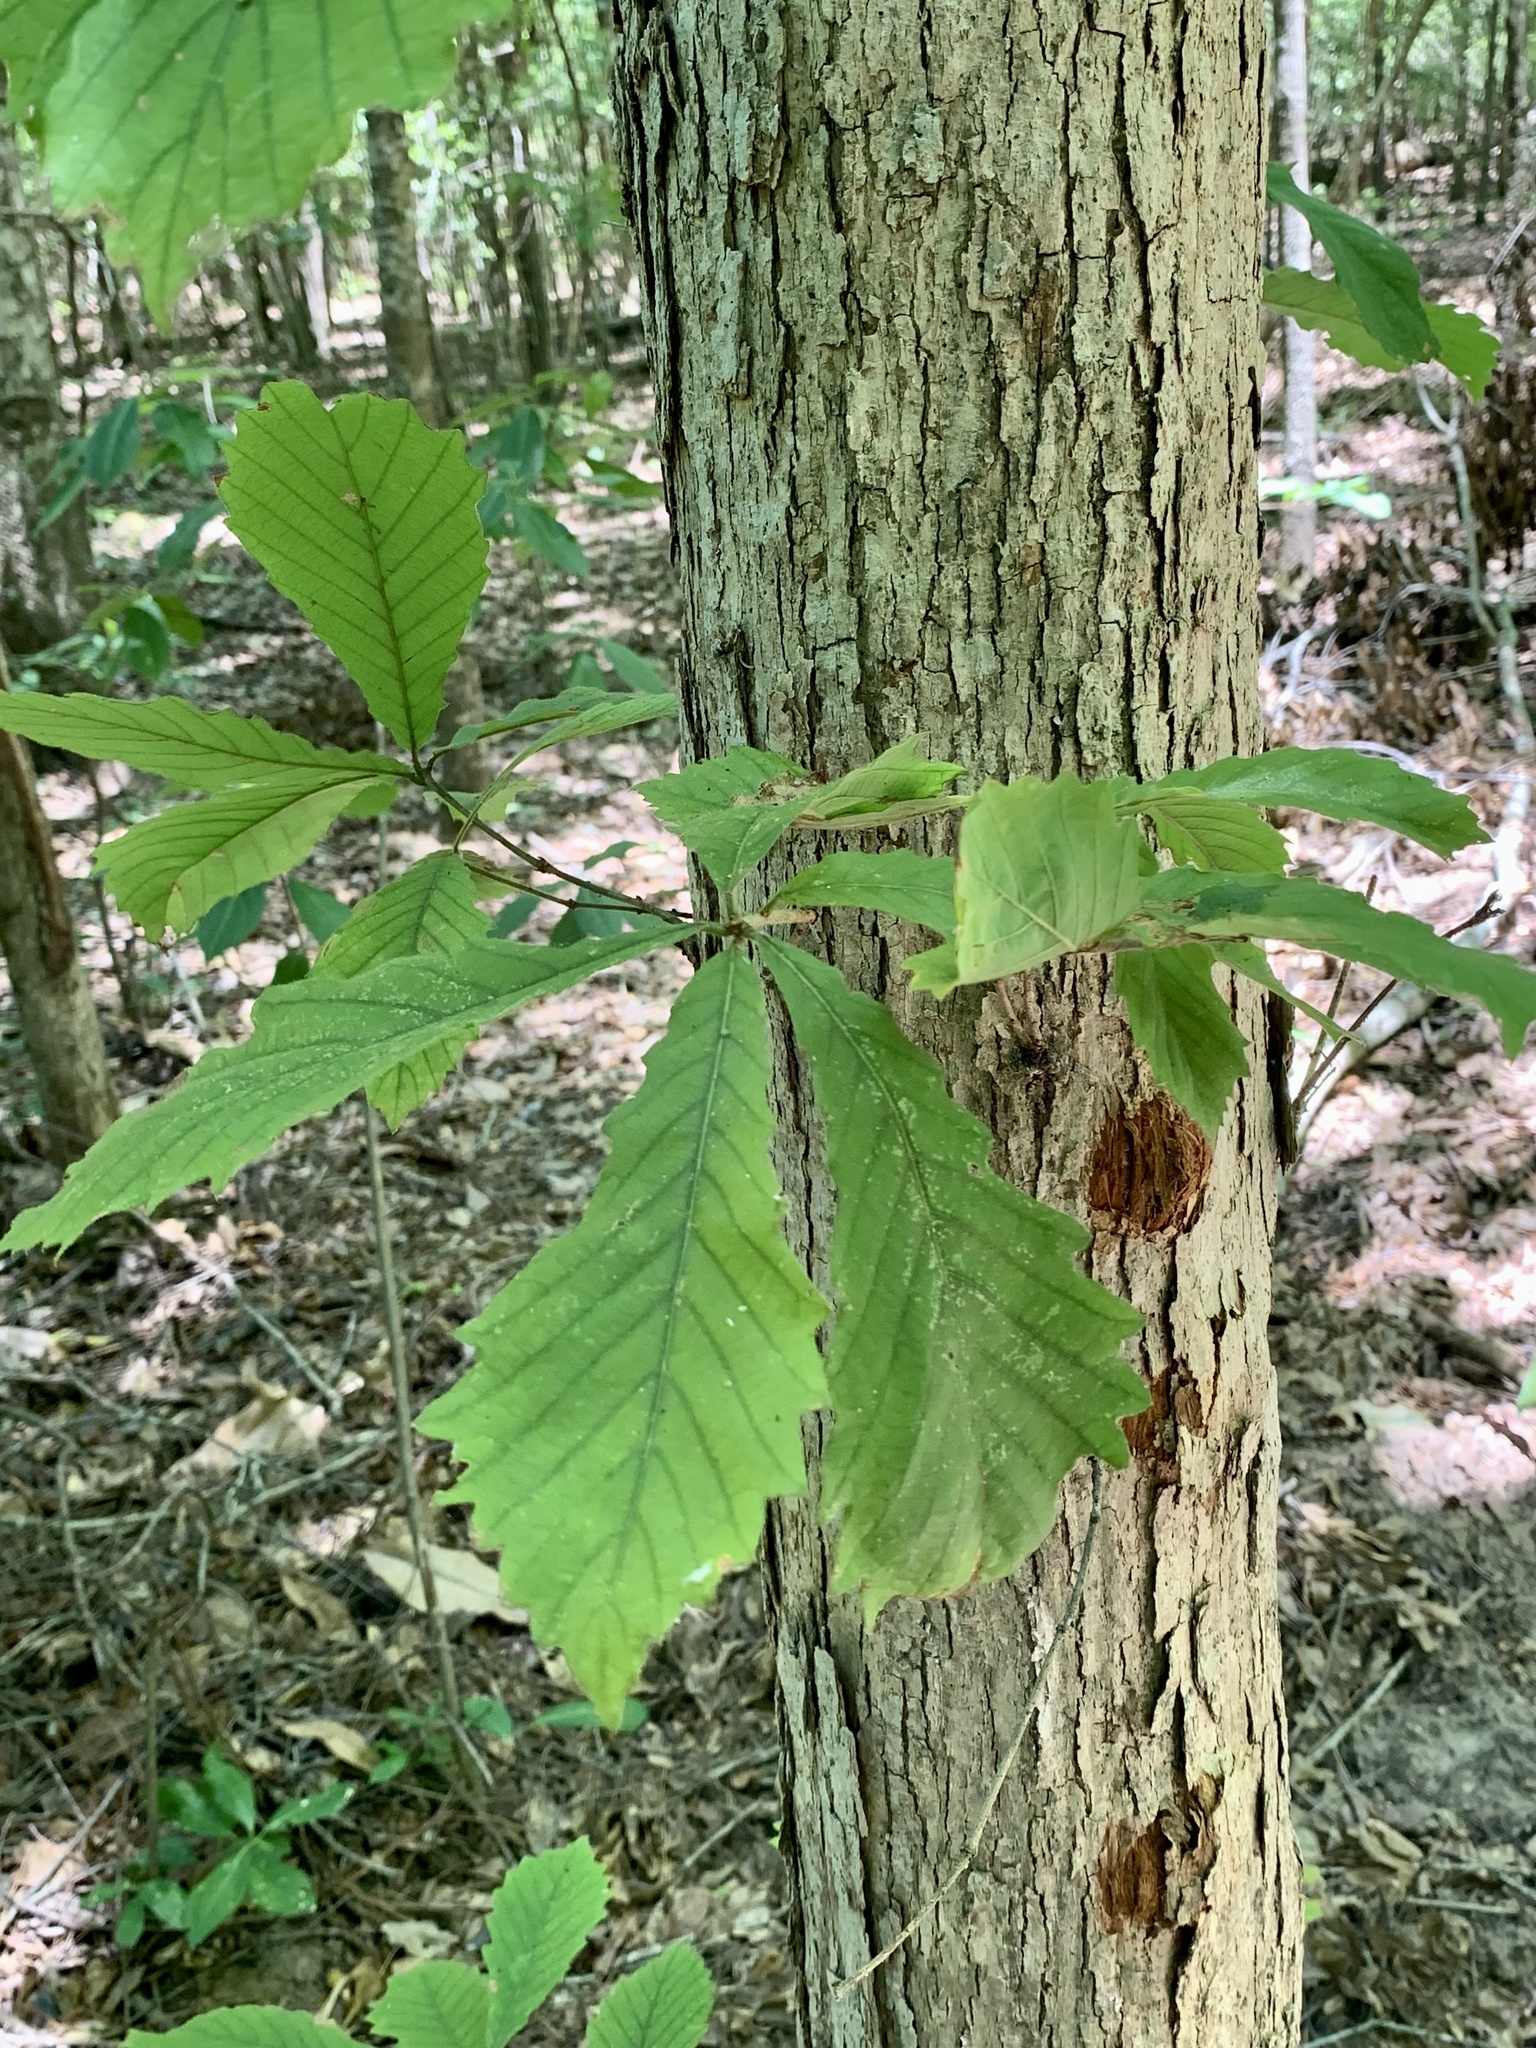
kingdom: Plantae
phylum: Tracheophyta
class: Magnoliopsida
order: Fagales
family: Fagaceae
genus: Quercus
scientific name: Quercus michauxii
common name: Swamp chestnut oak
